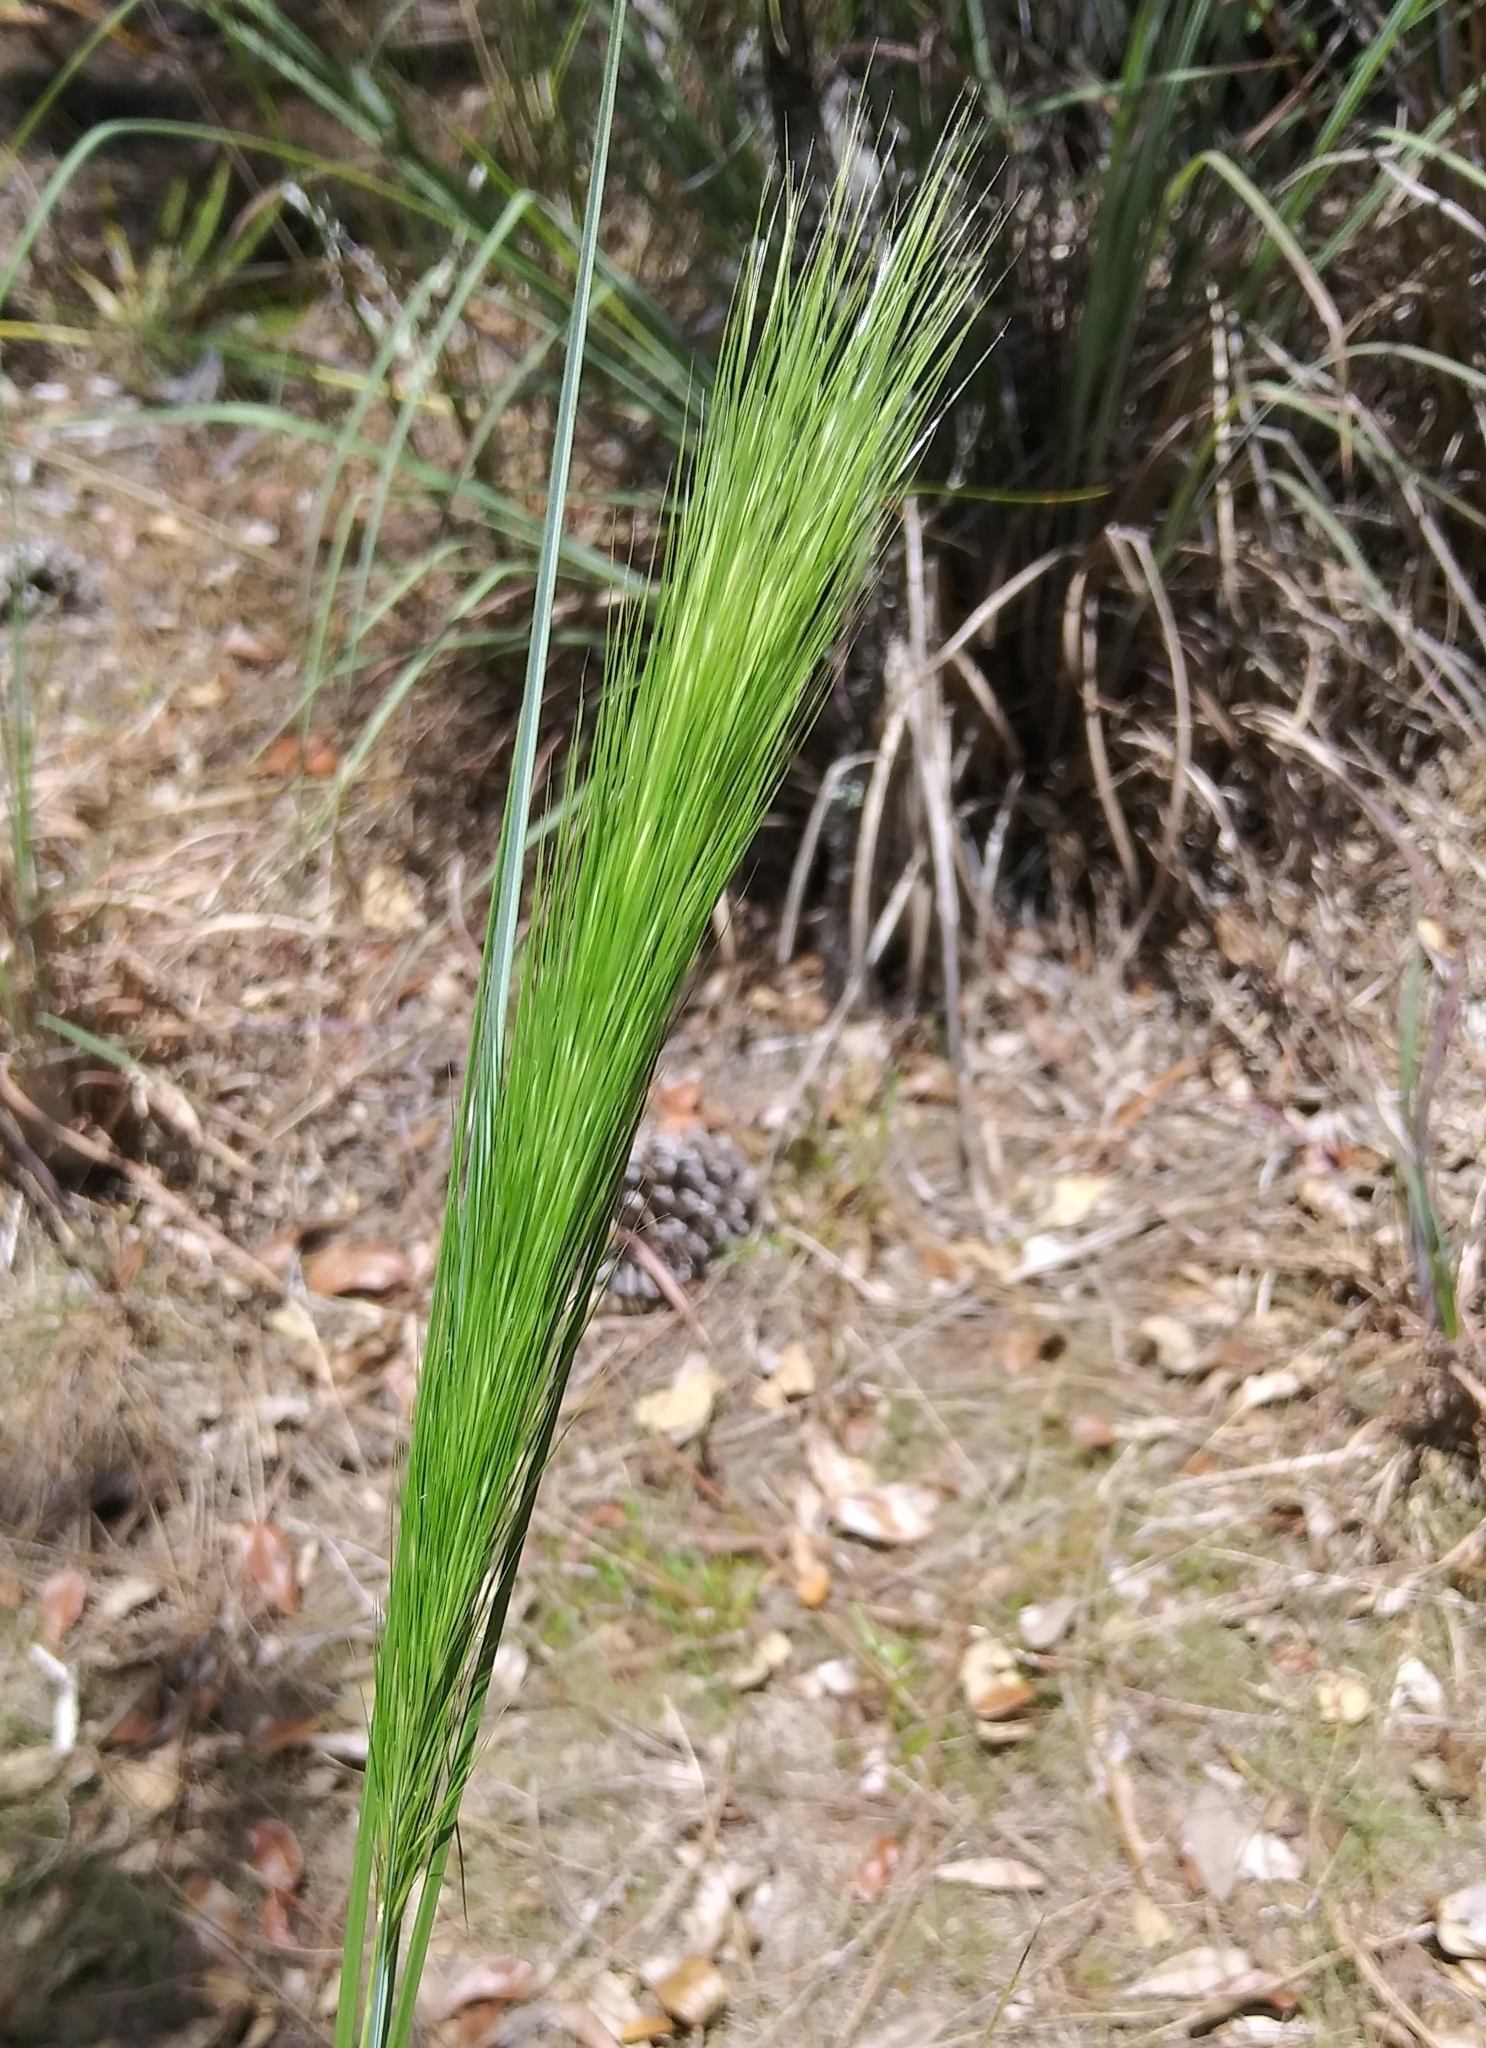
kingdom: Plantae
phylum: Tracheophyta
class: Liliopsida
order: Poales
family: Poaceae
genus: Aristida
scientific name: Aristida spiciformis
